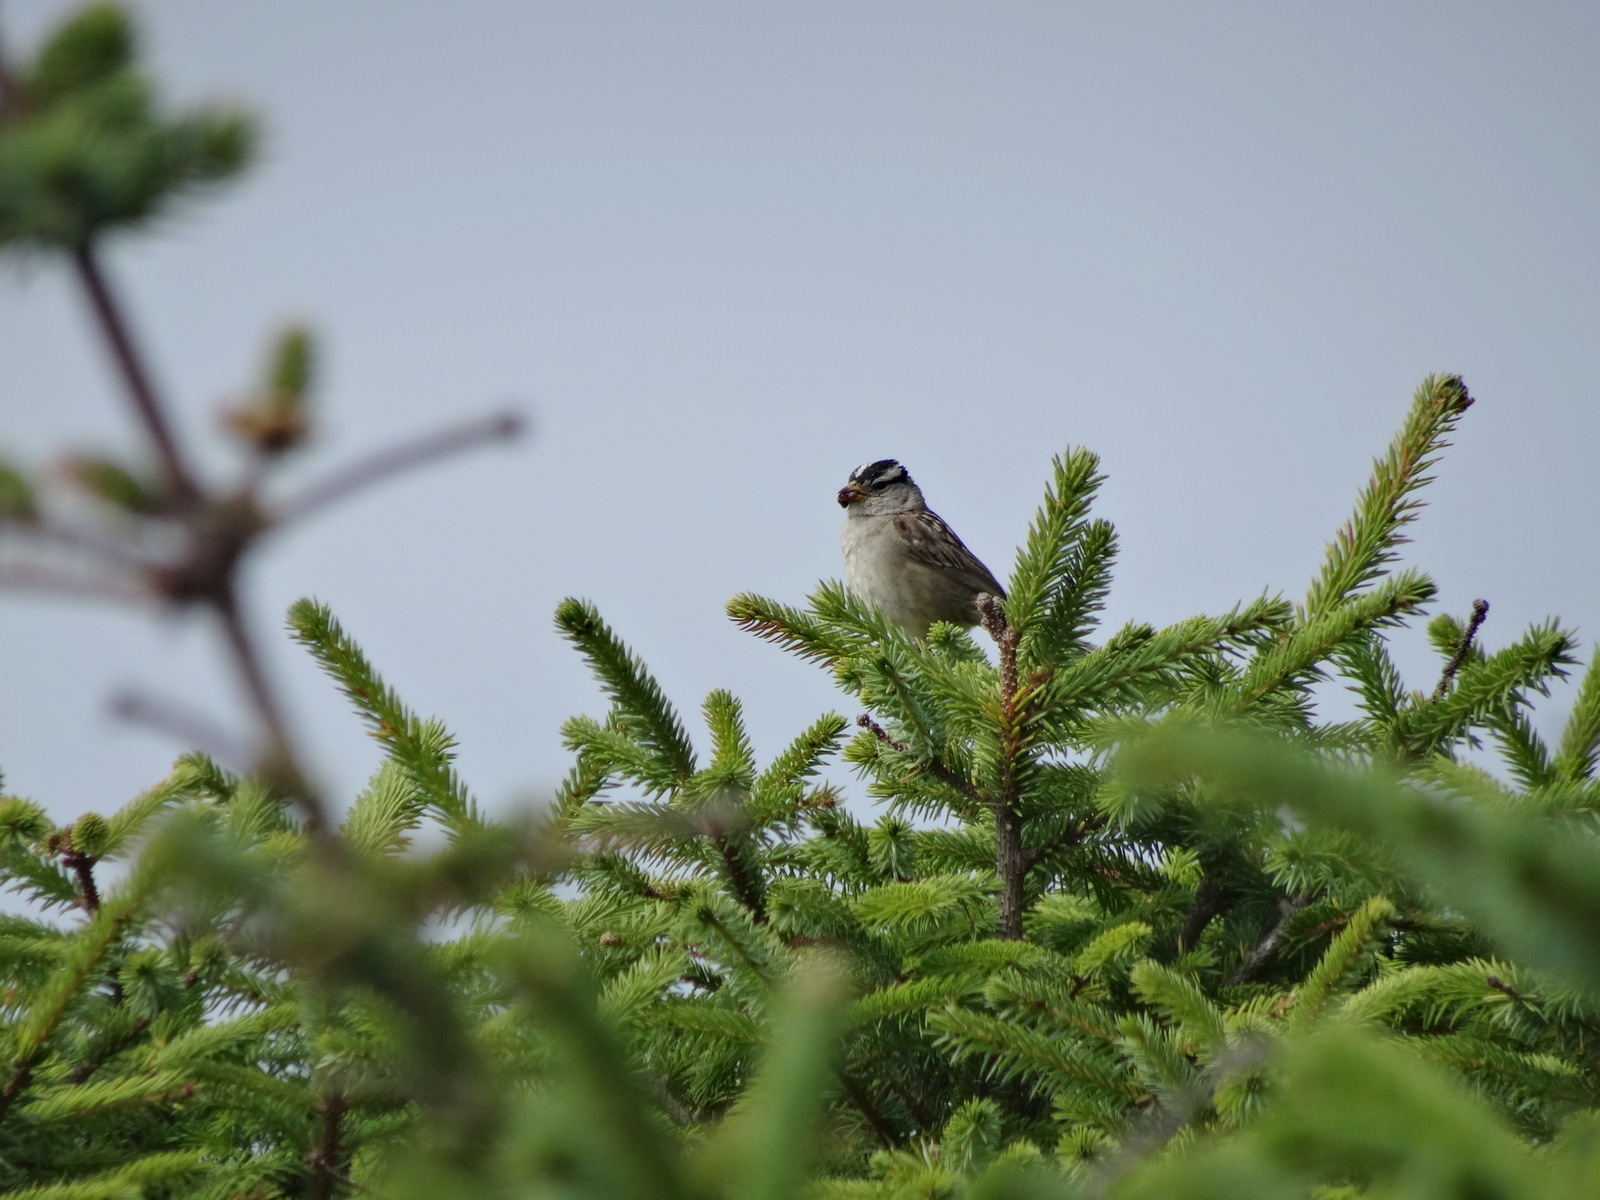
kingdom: Animalia
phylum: Chordata
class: Aves
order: Passeriformes
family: Passerellidae
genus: Zonotrichia
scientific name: Zonotrichia leucophrys
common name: White-crowned sparrow
